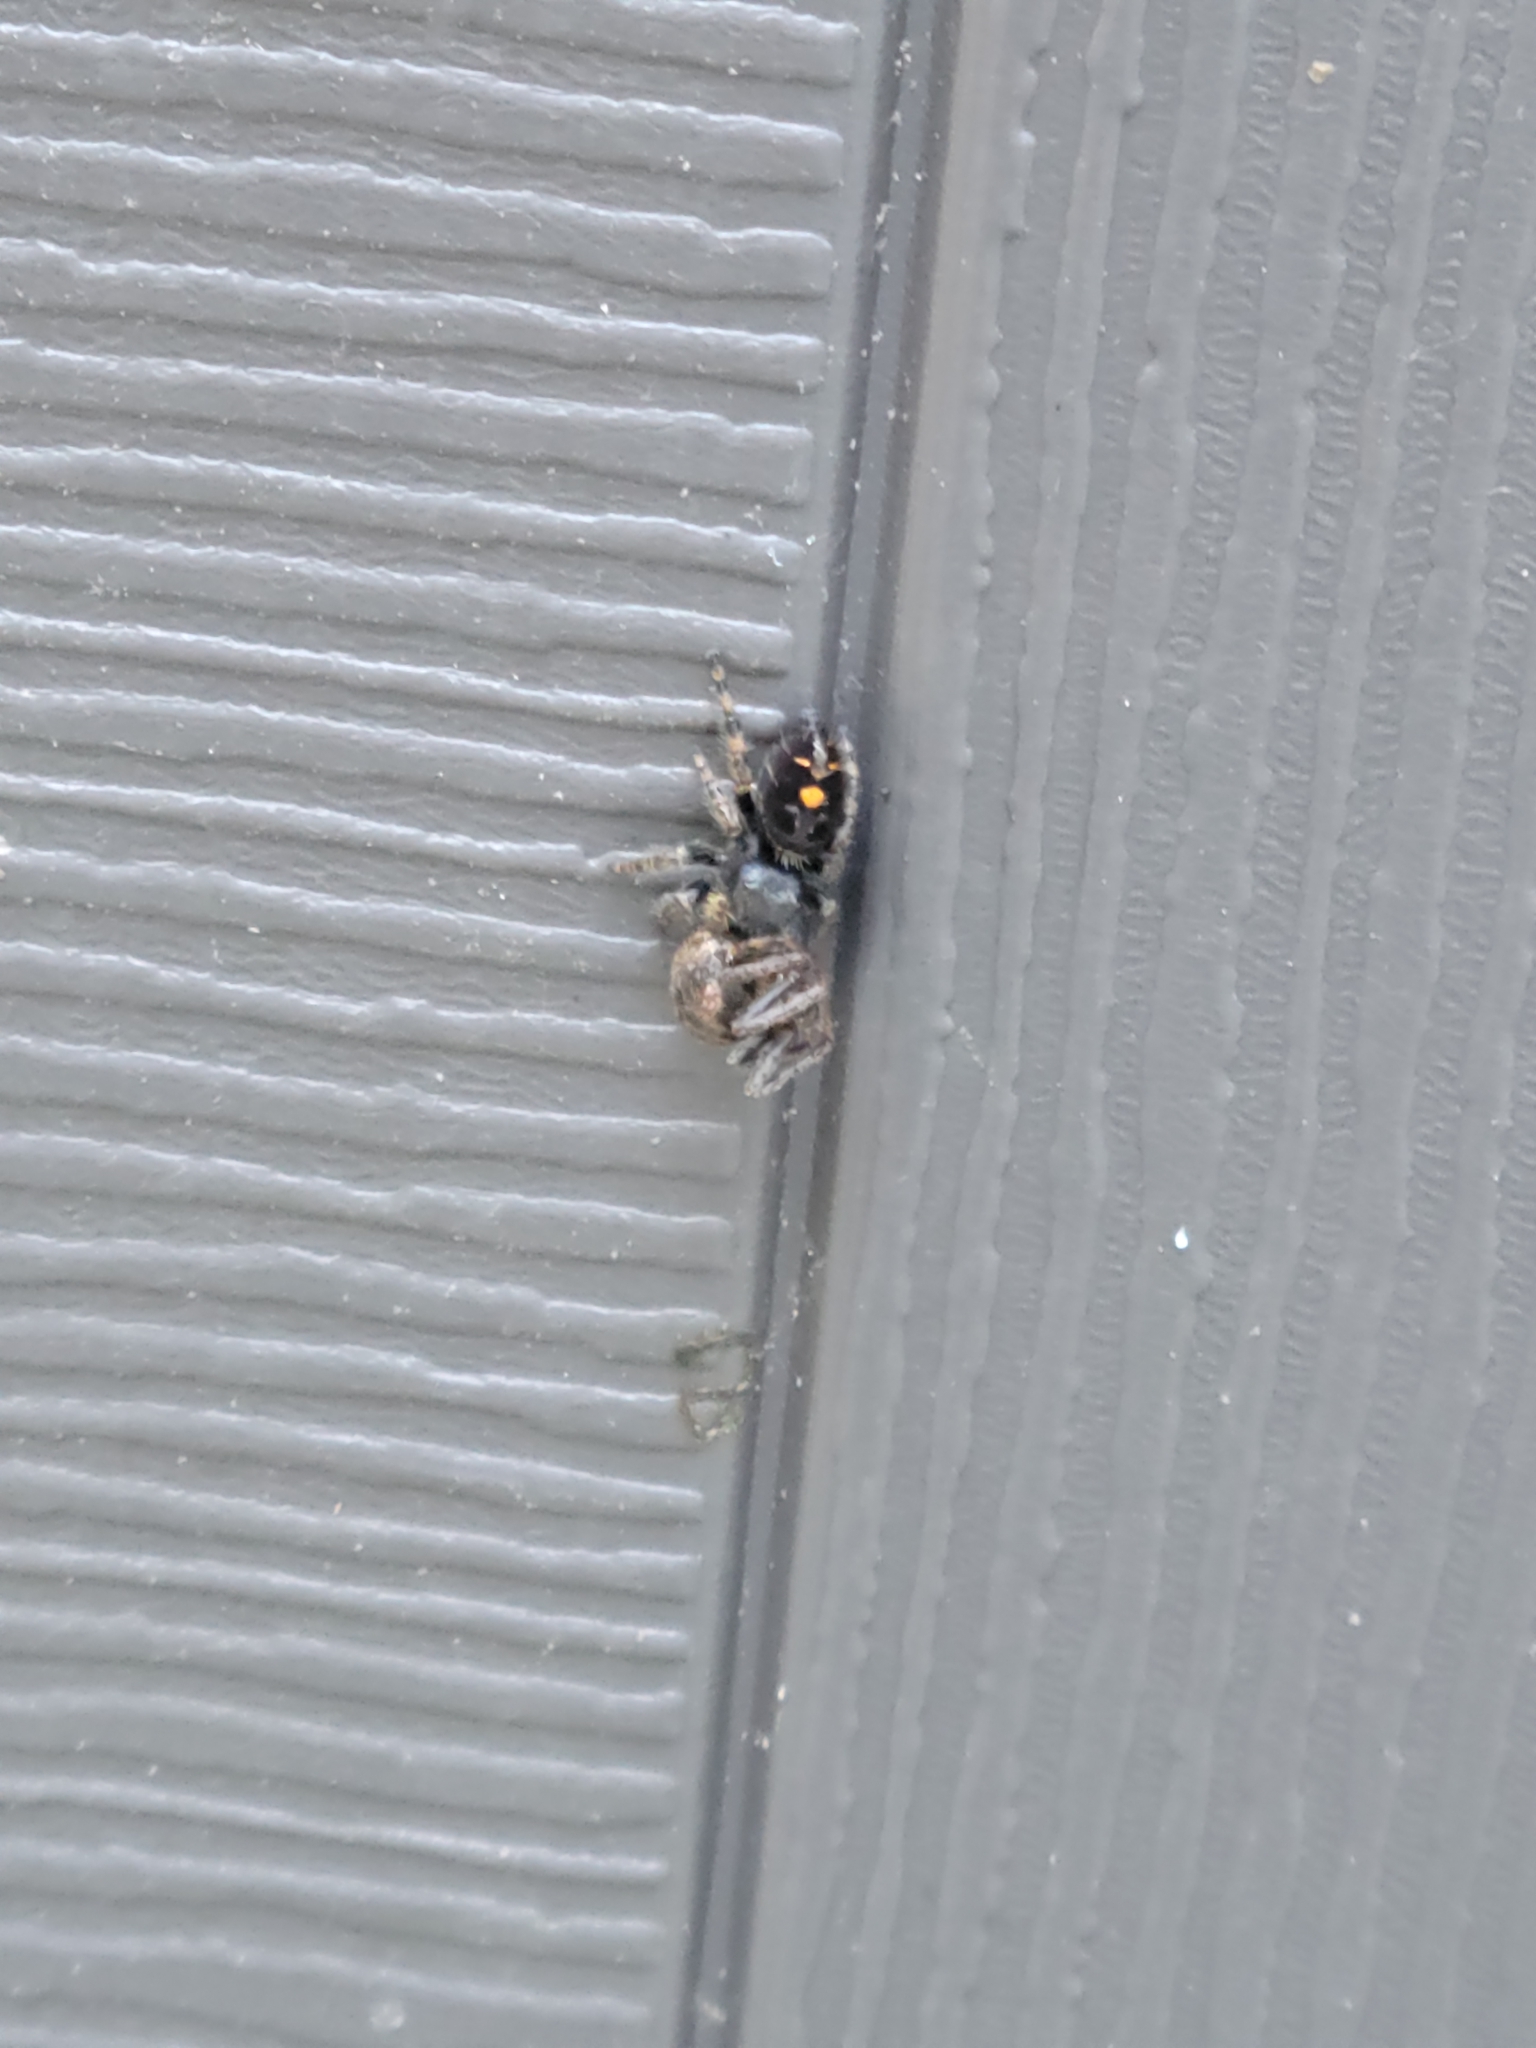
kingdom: Animalia
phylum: Arthropoda
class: Arachnida
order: Araneae
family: Salticidae
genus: Phidippus
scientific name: Phidippus audax
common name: Bold jumper
